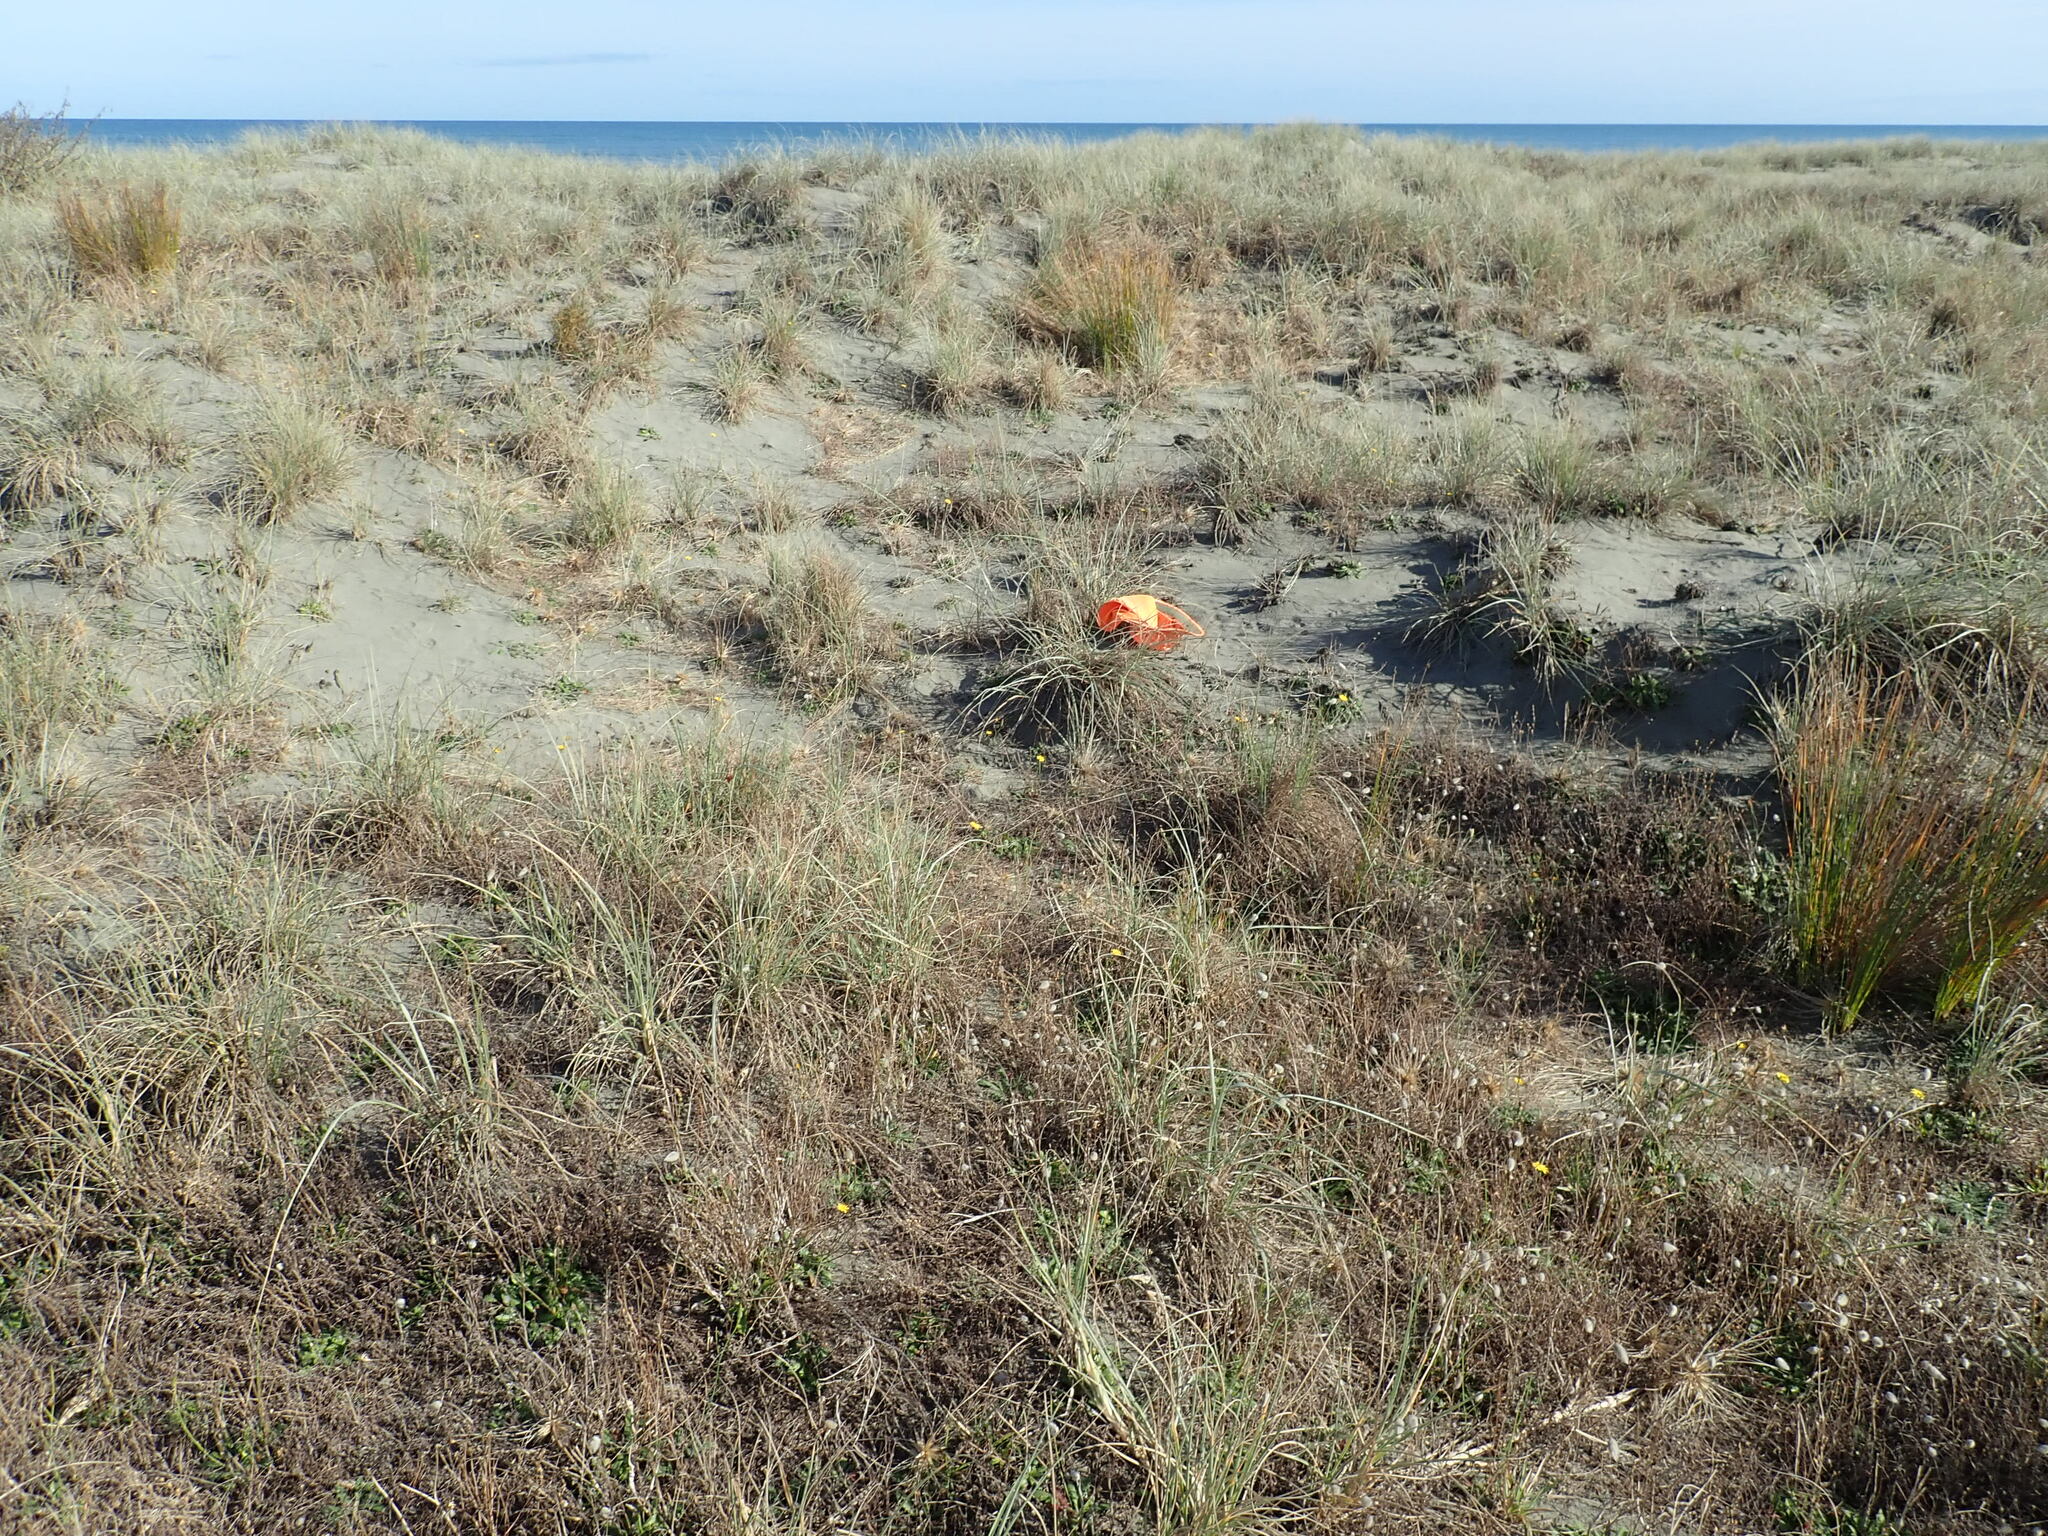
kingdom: Plantae
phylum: Tracheophyta
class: Magnoliopsida
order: Gentianales
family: Rubiaceae
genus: Coprosma
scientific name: Coprosma acerosa
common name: Sand coprosma
